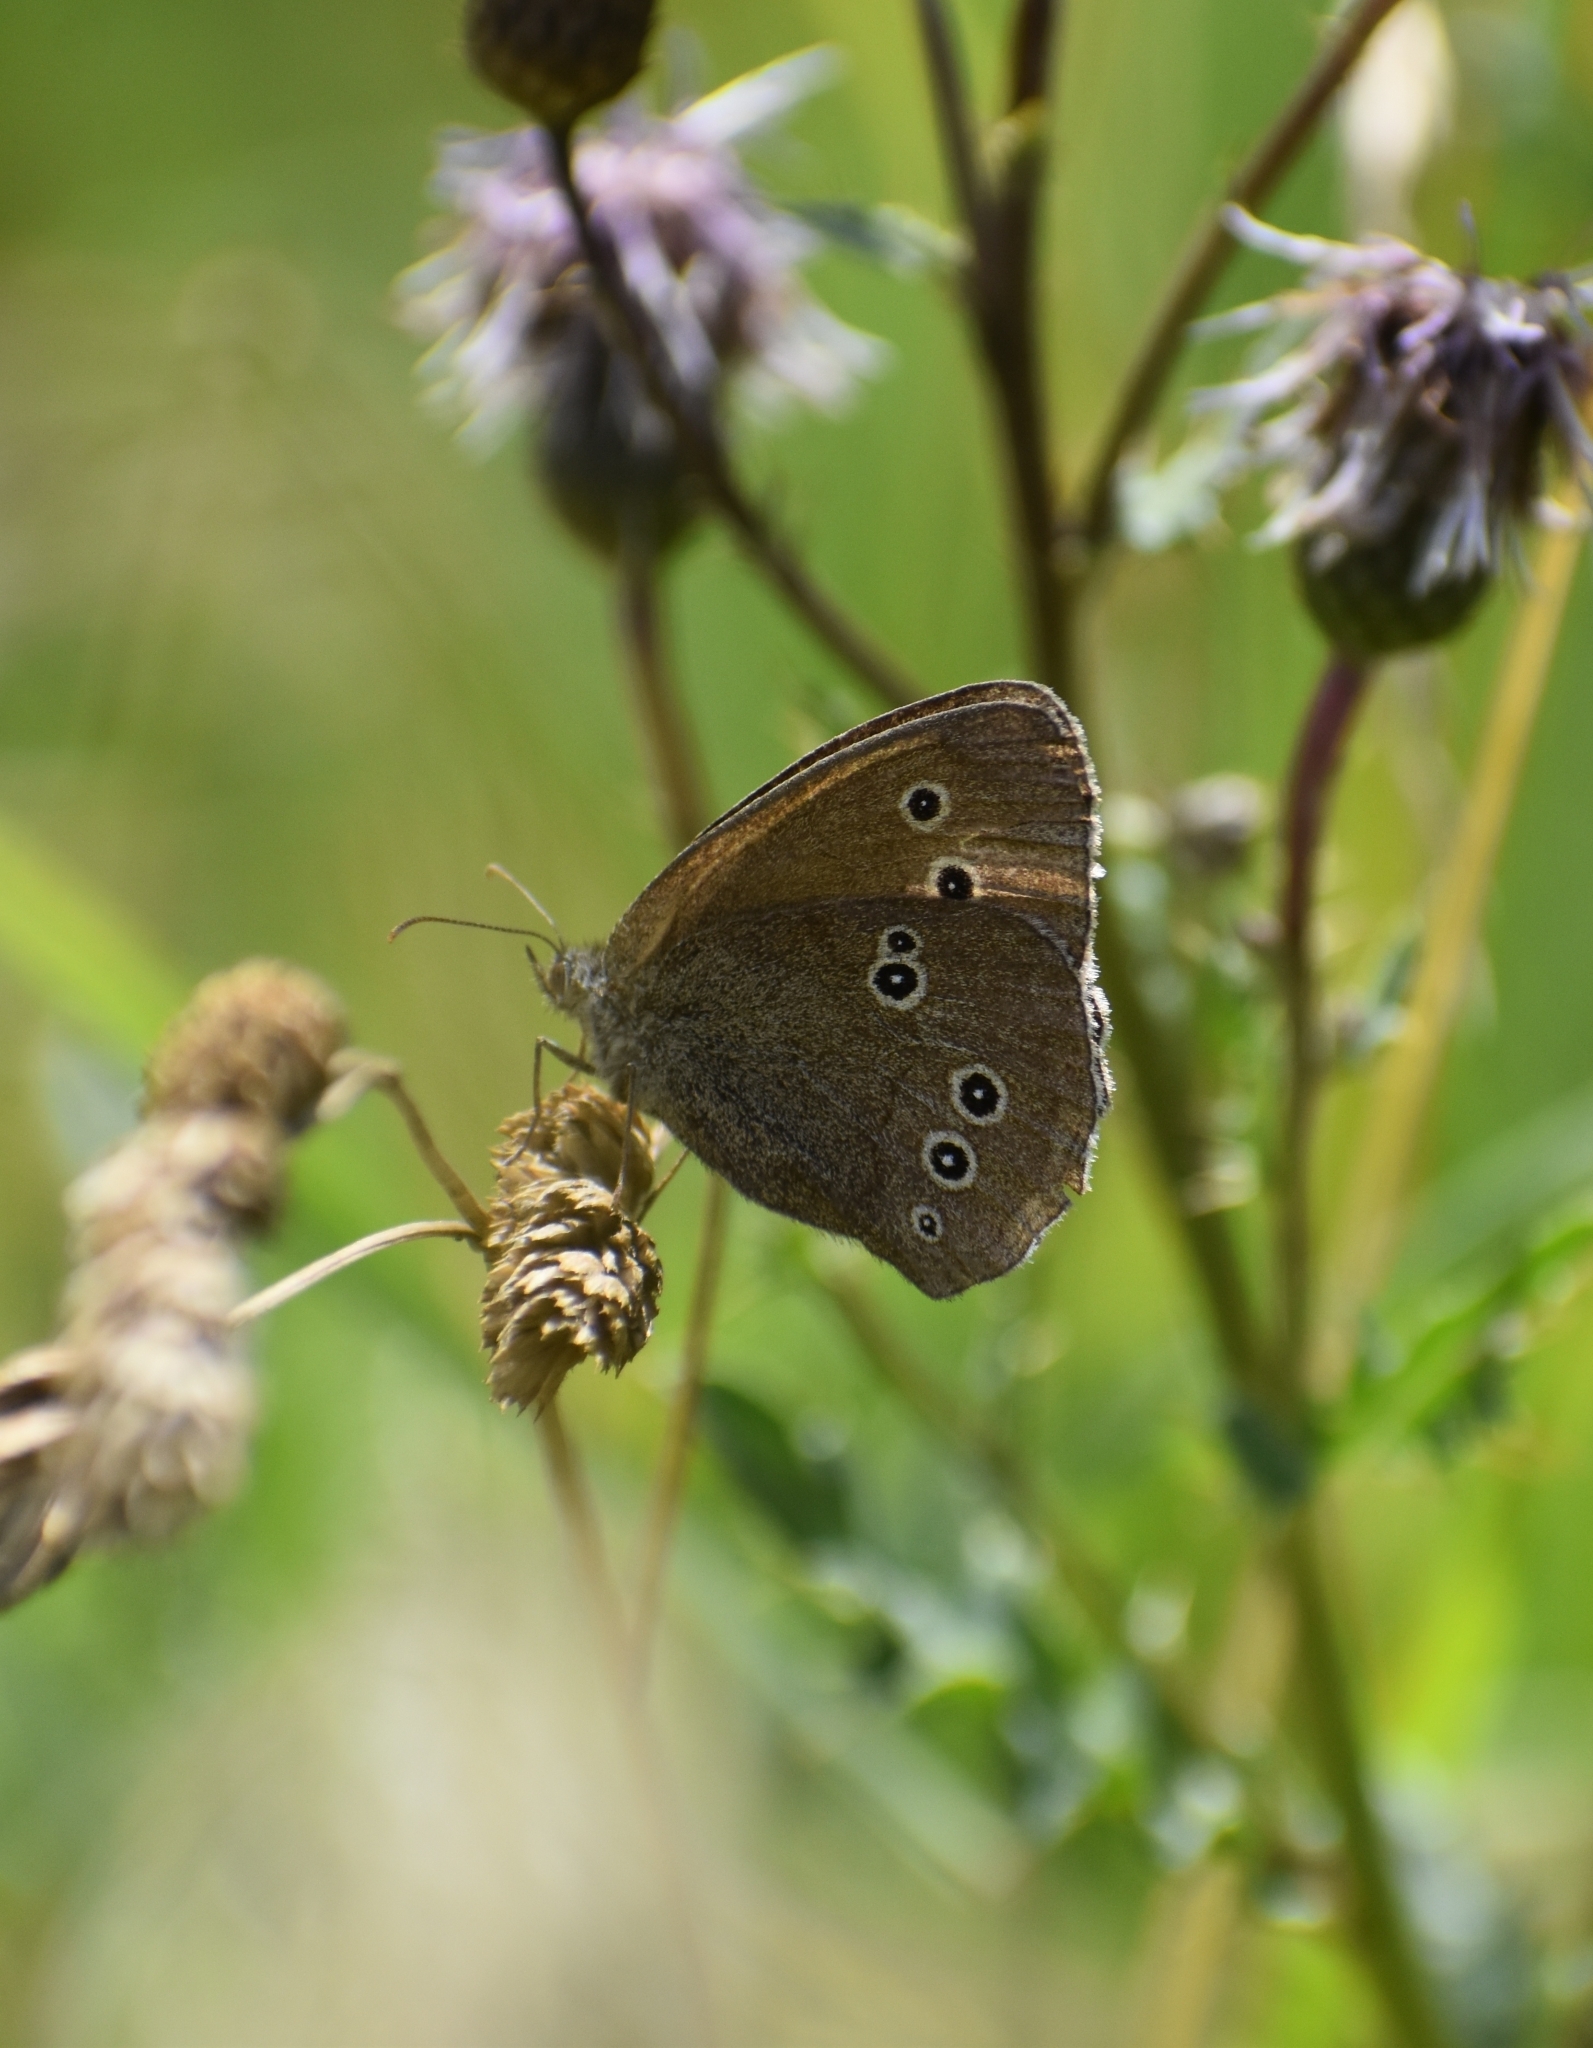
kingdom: Animalia
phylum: Arthropoda
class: Insecta
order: Lepidoptera
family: Nymphalidae
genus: Aphantopus
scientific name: Aphantopus hyperantus
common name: Ringlet
